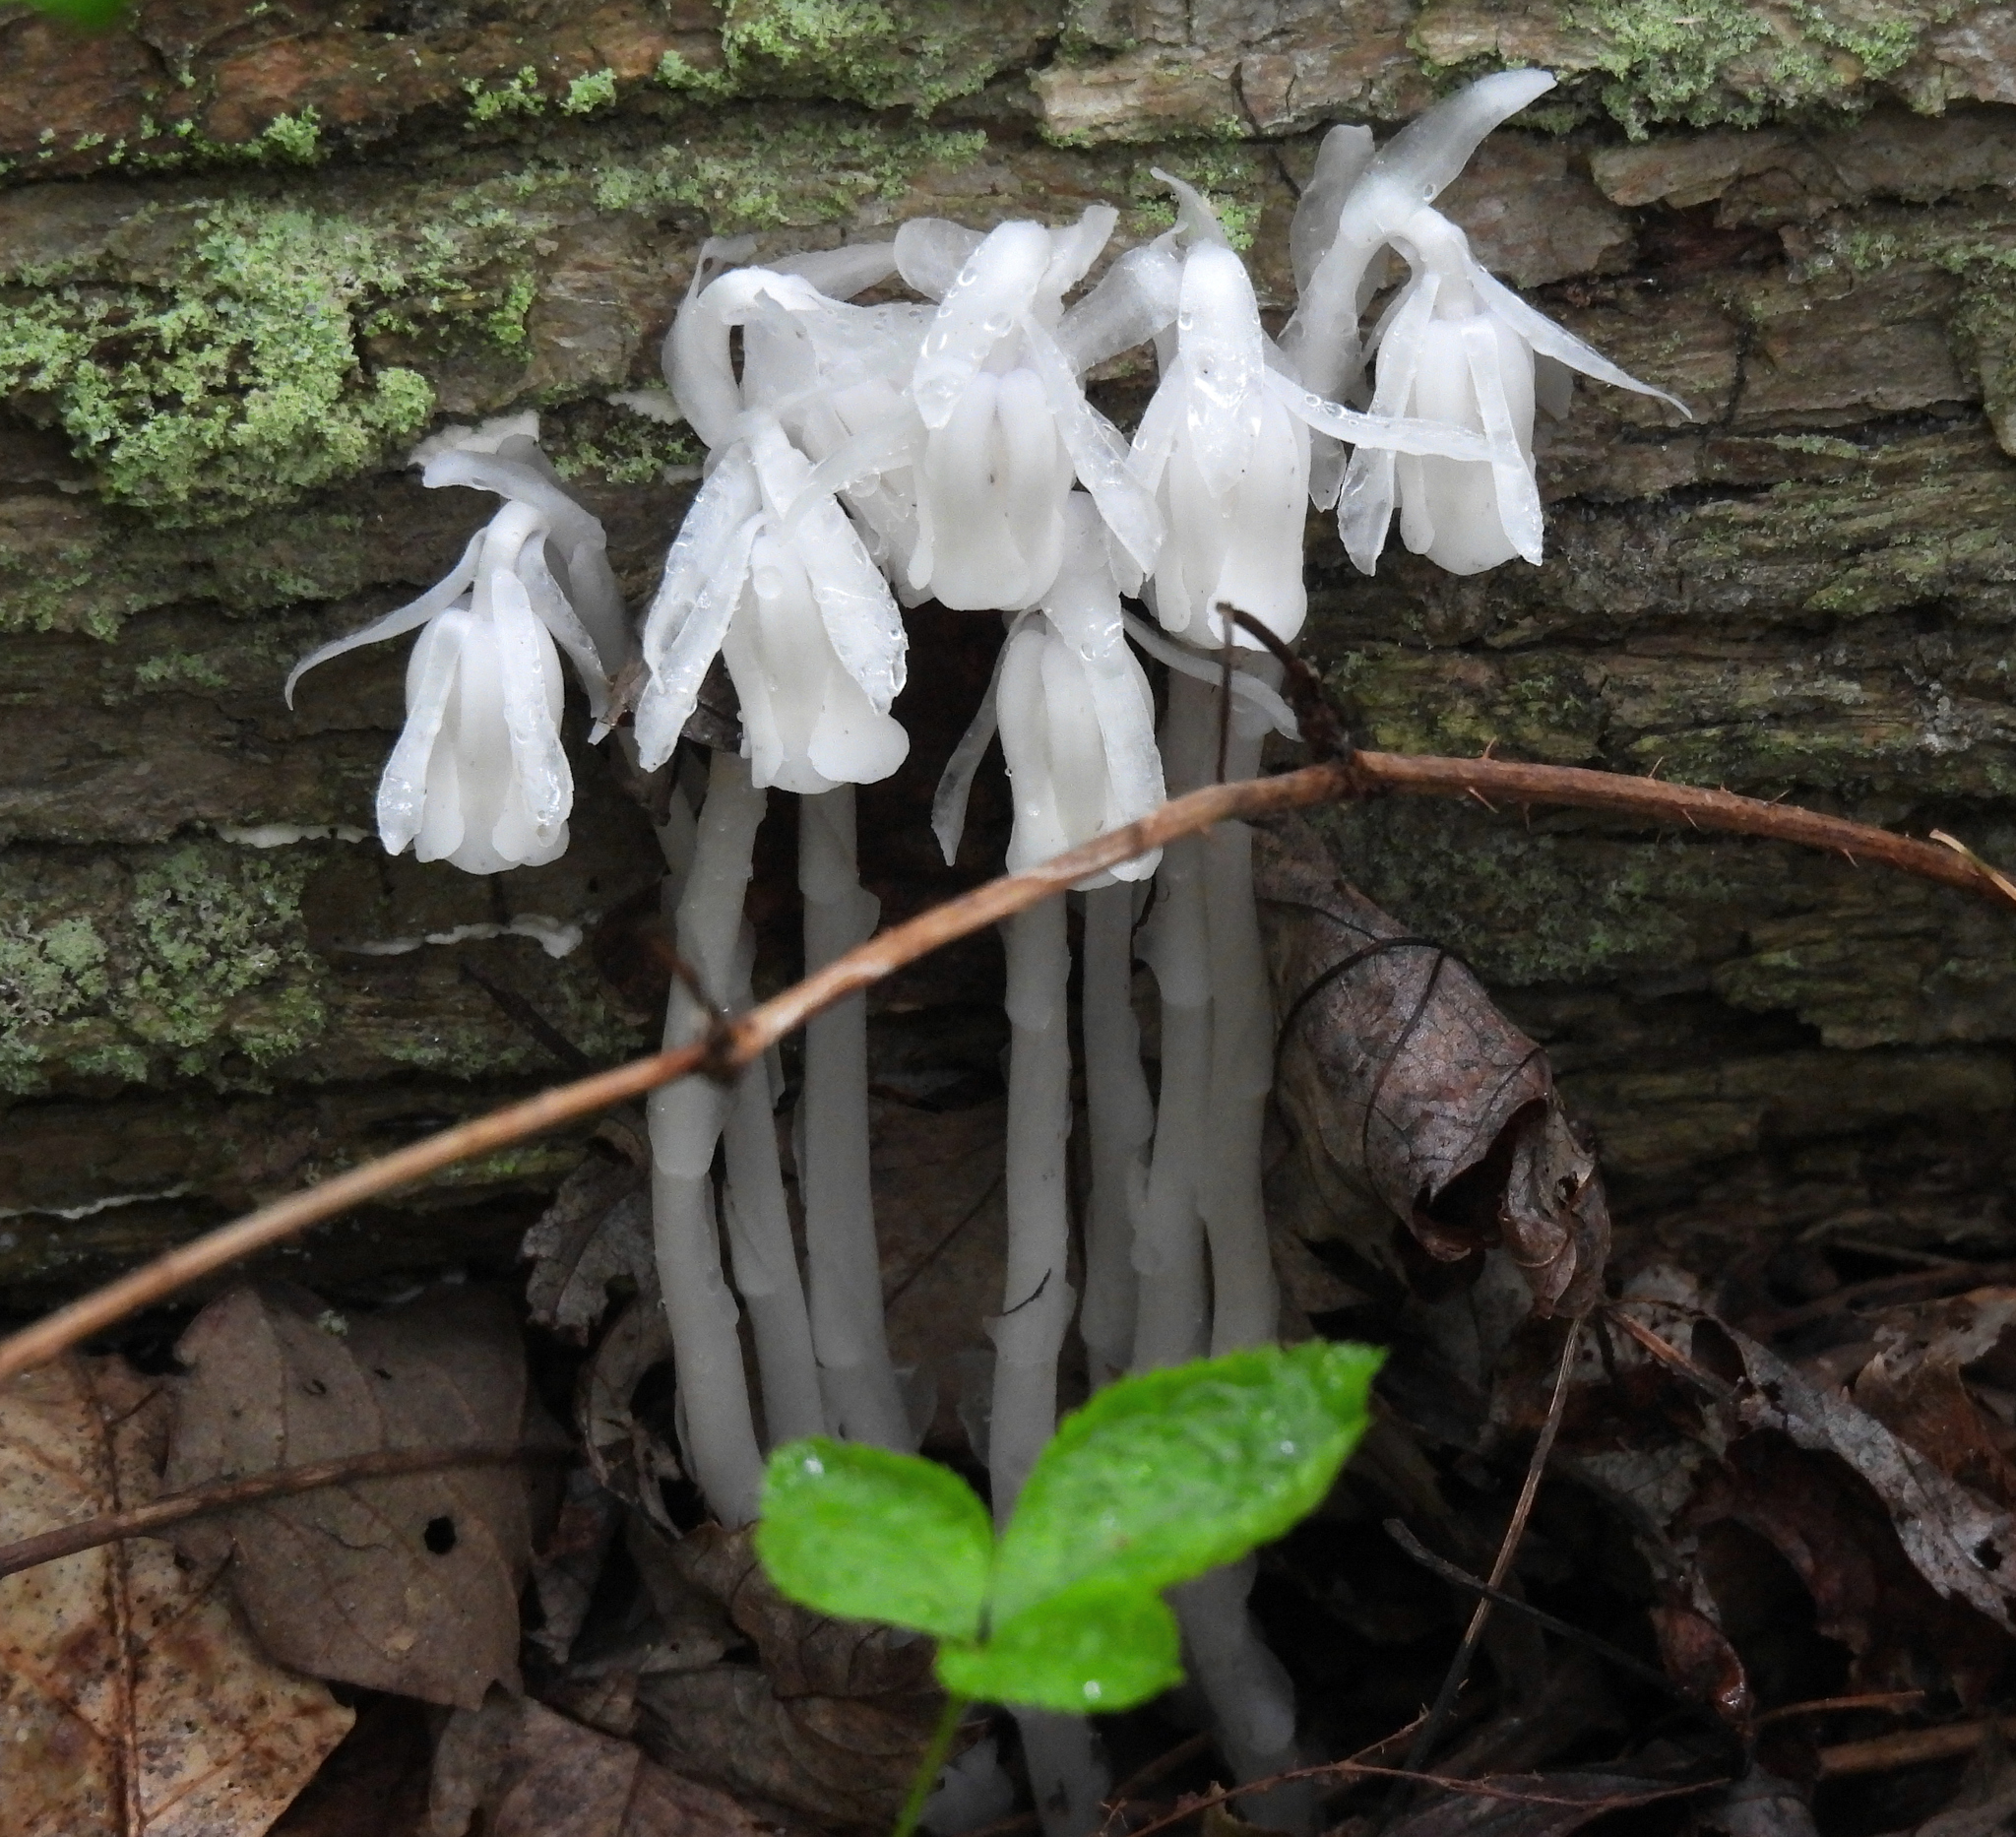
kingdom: Plantae
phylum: Tracheophyta
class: Magnoliopsida
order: Ericales
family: Ericaceae
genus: Monotropa
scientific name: Monotropa uniflora
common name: Convulsion root
